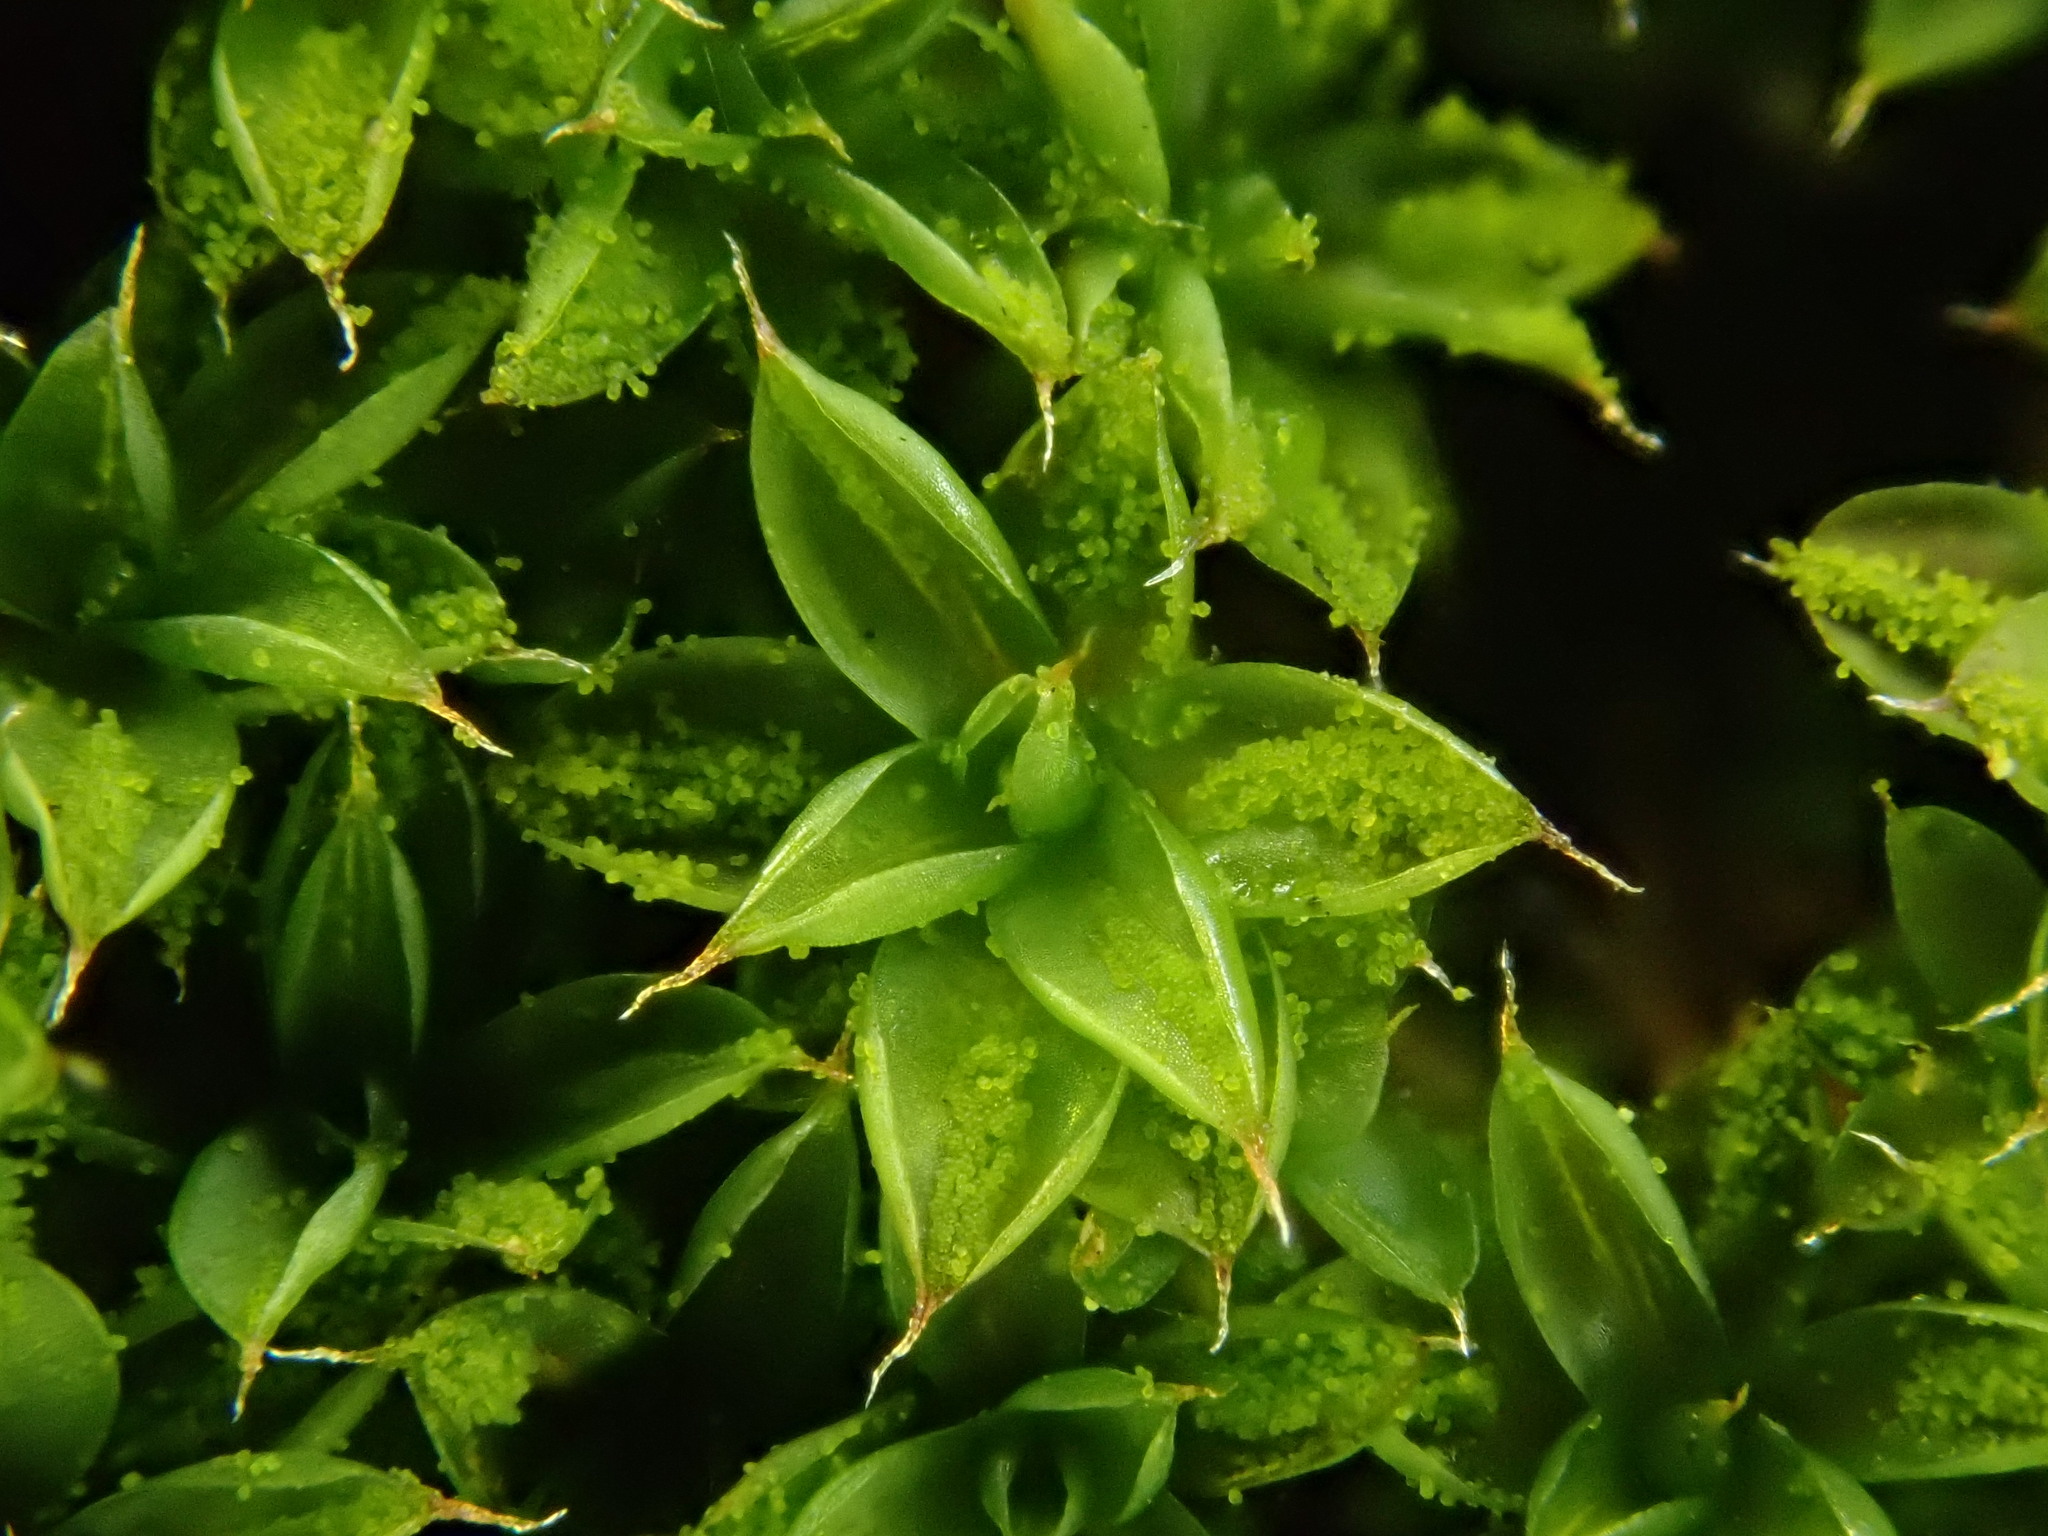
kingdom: Plantae
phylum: Bryophyta
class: Bryopsida
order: Pottiales
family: Pottiaceae
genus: Syntrichia
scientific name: Syntrichia papillosa
